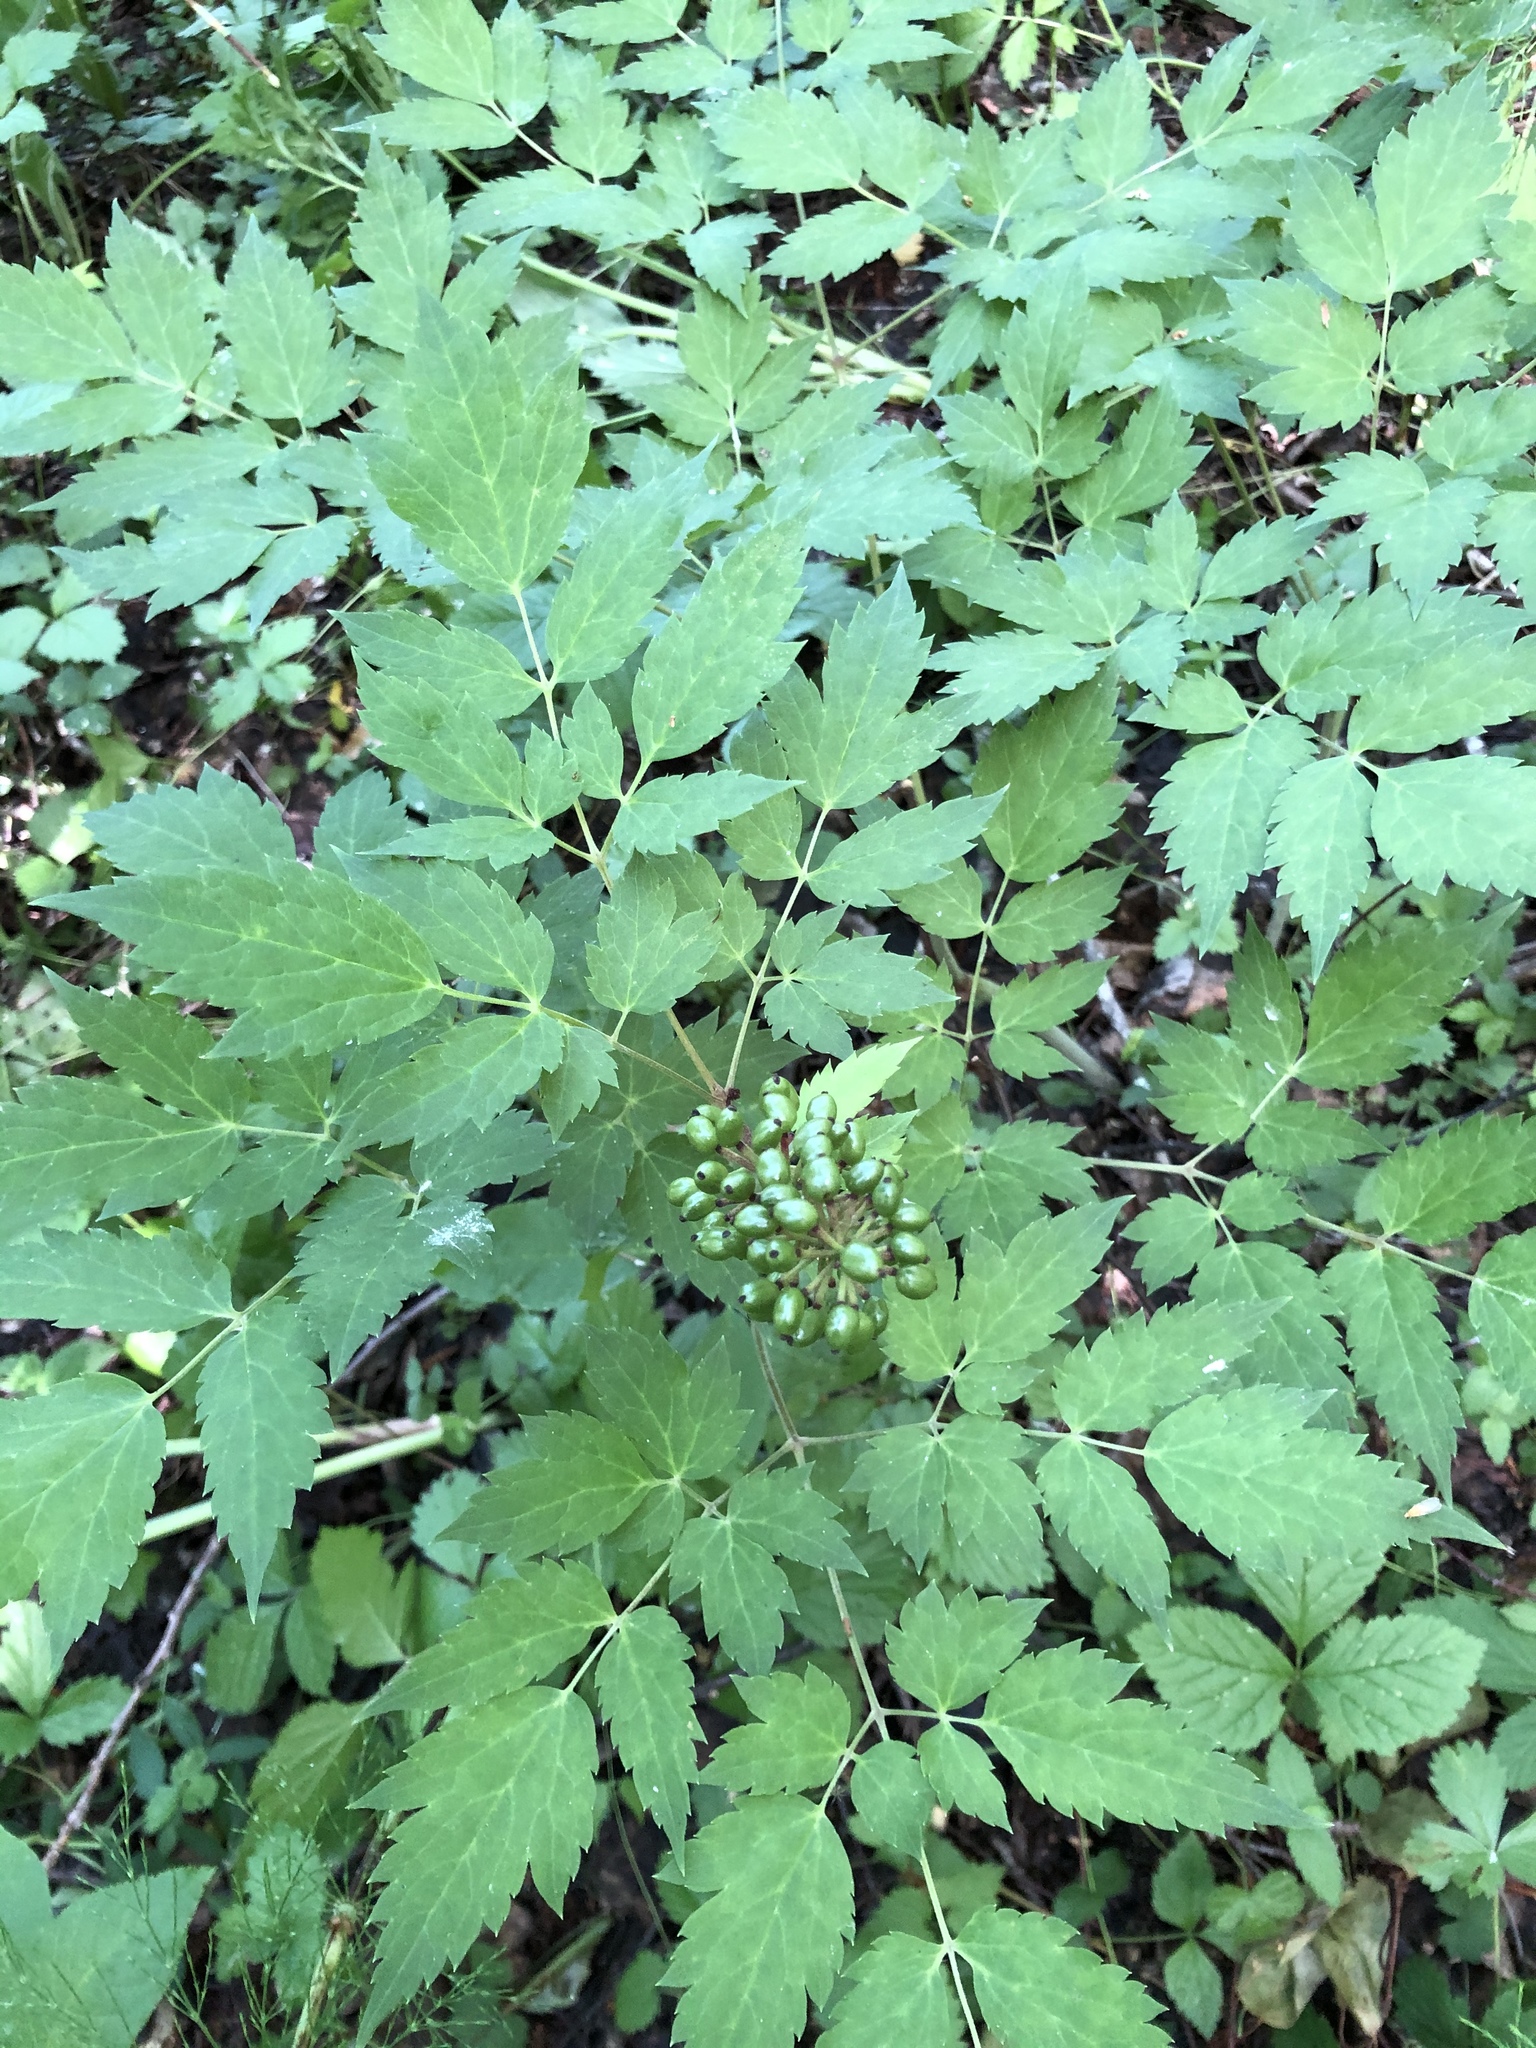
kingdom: Plantae
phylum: Tracheophyta
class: Magnoliopsida
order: Ranunculales
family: Ranunculaceae
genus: Actaea
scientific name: Actaea erythrocarpa
